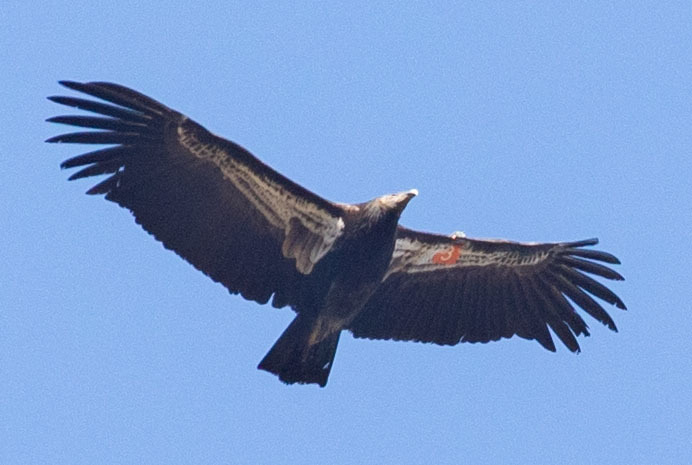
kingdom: Animalia
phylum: Chordata
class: Aves
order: Accipitriformes
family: Cathartidae
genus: Gymnogyps
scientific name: Gymnogyps californianus
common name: California condor
